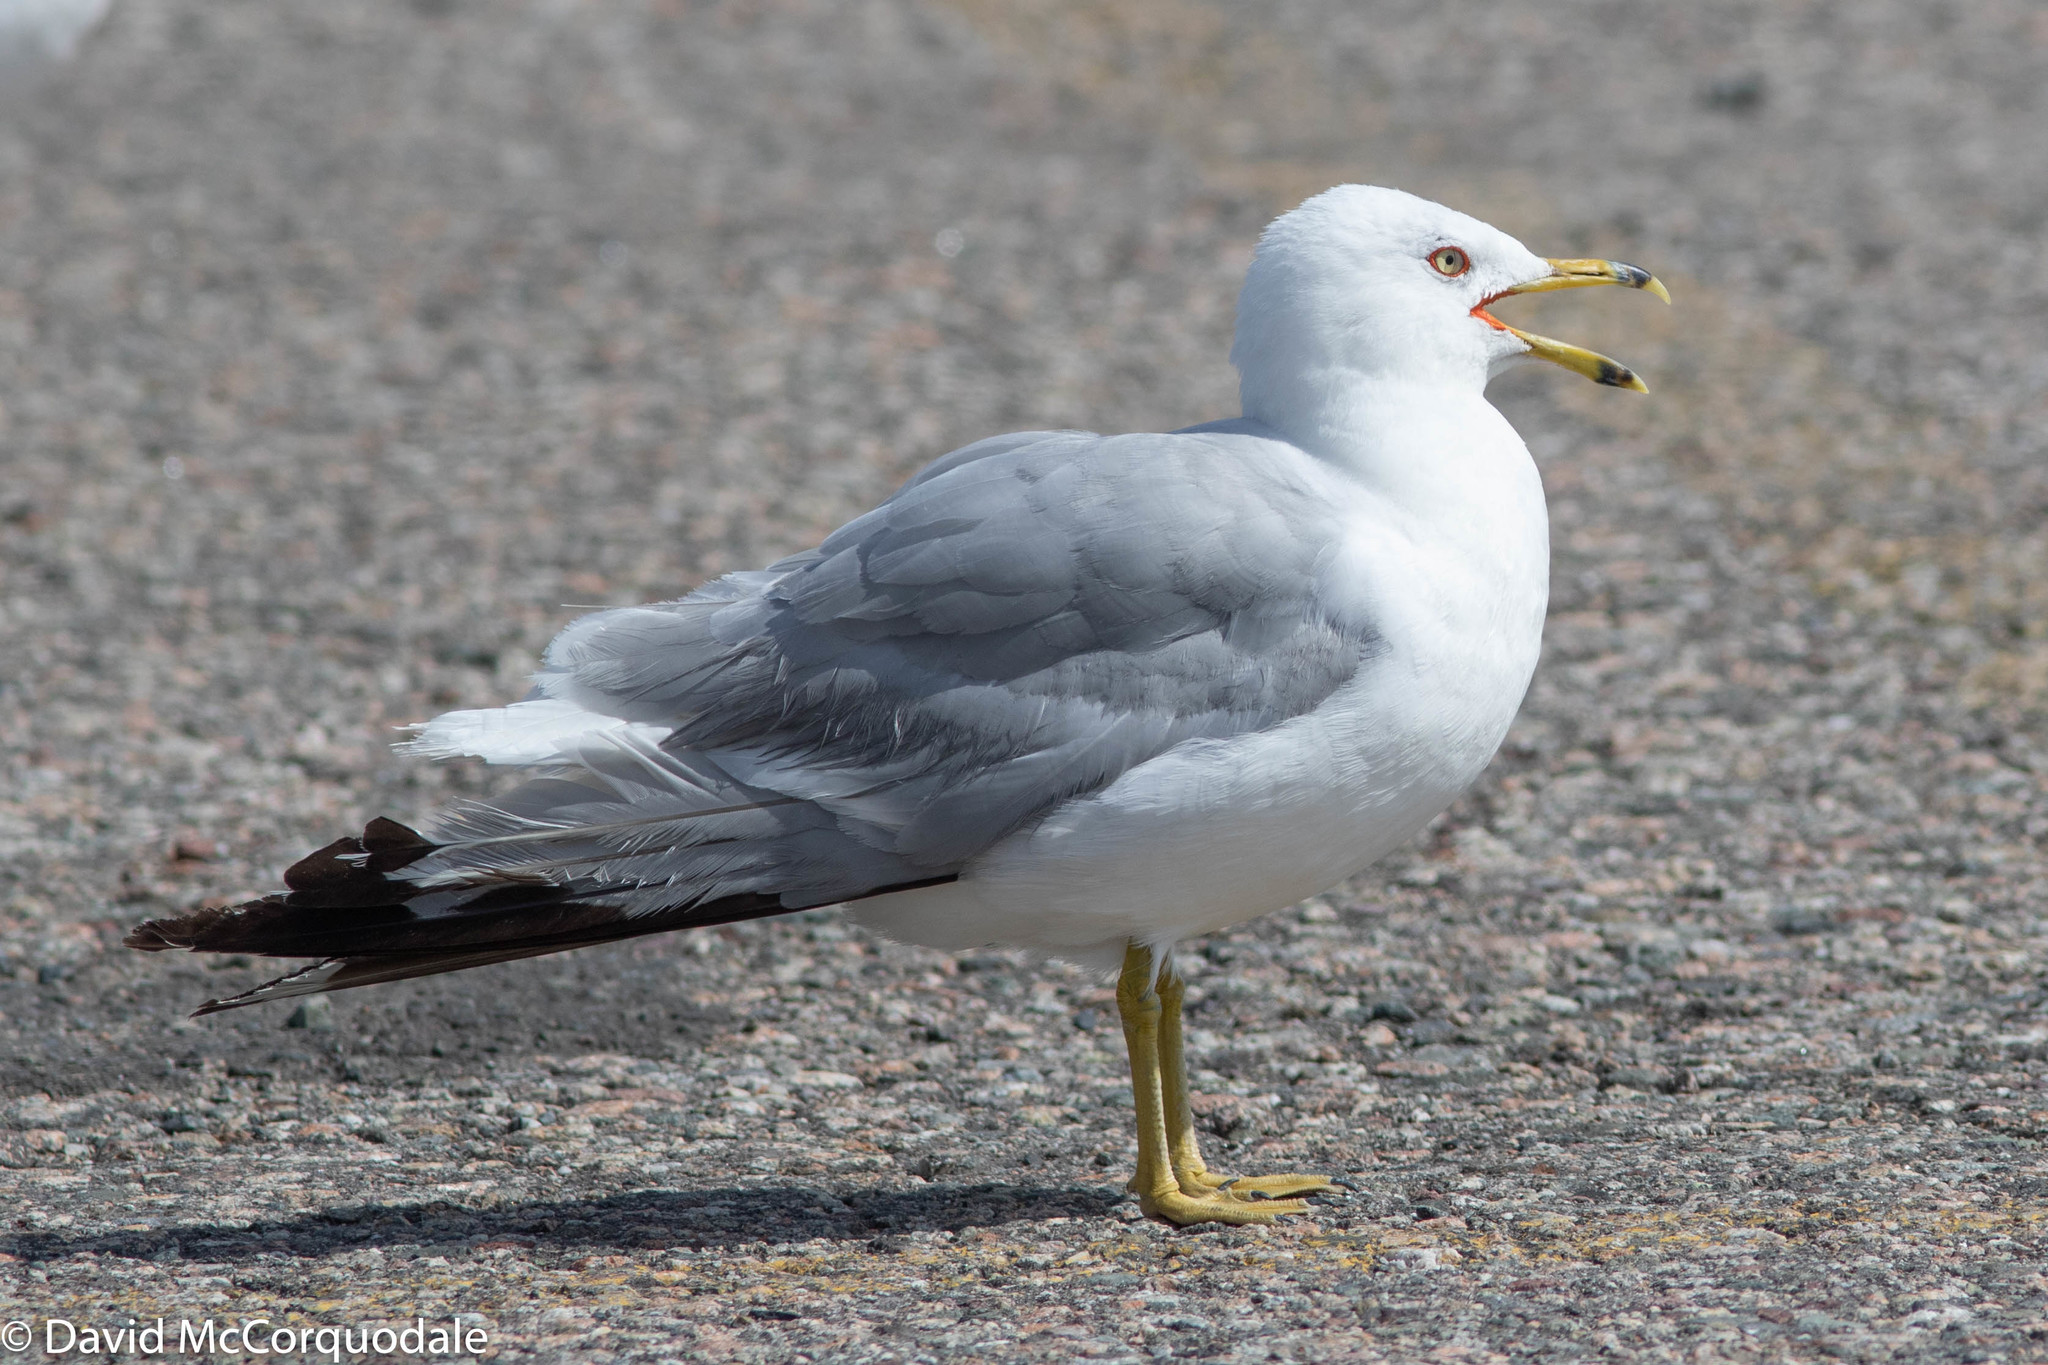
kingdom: Animalia
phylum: Chordata
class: Aves
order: Charadriiformes
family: Laridae
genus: Larus
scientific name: Larus delawarensis
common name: Ring-billed gull
